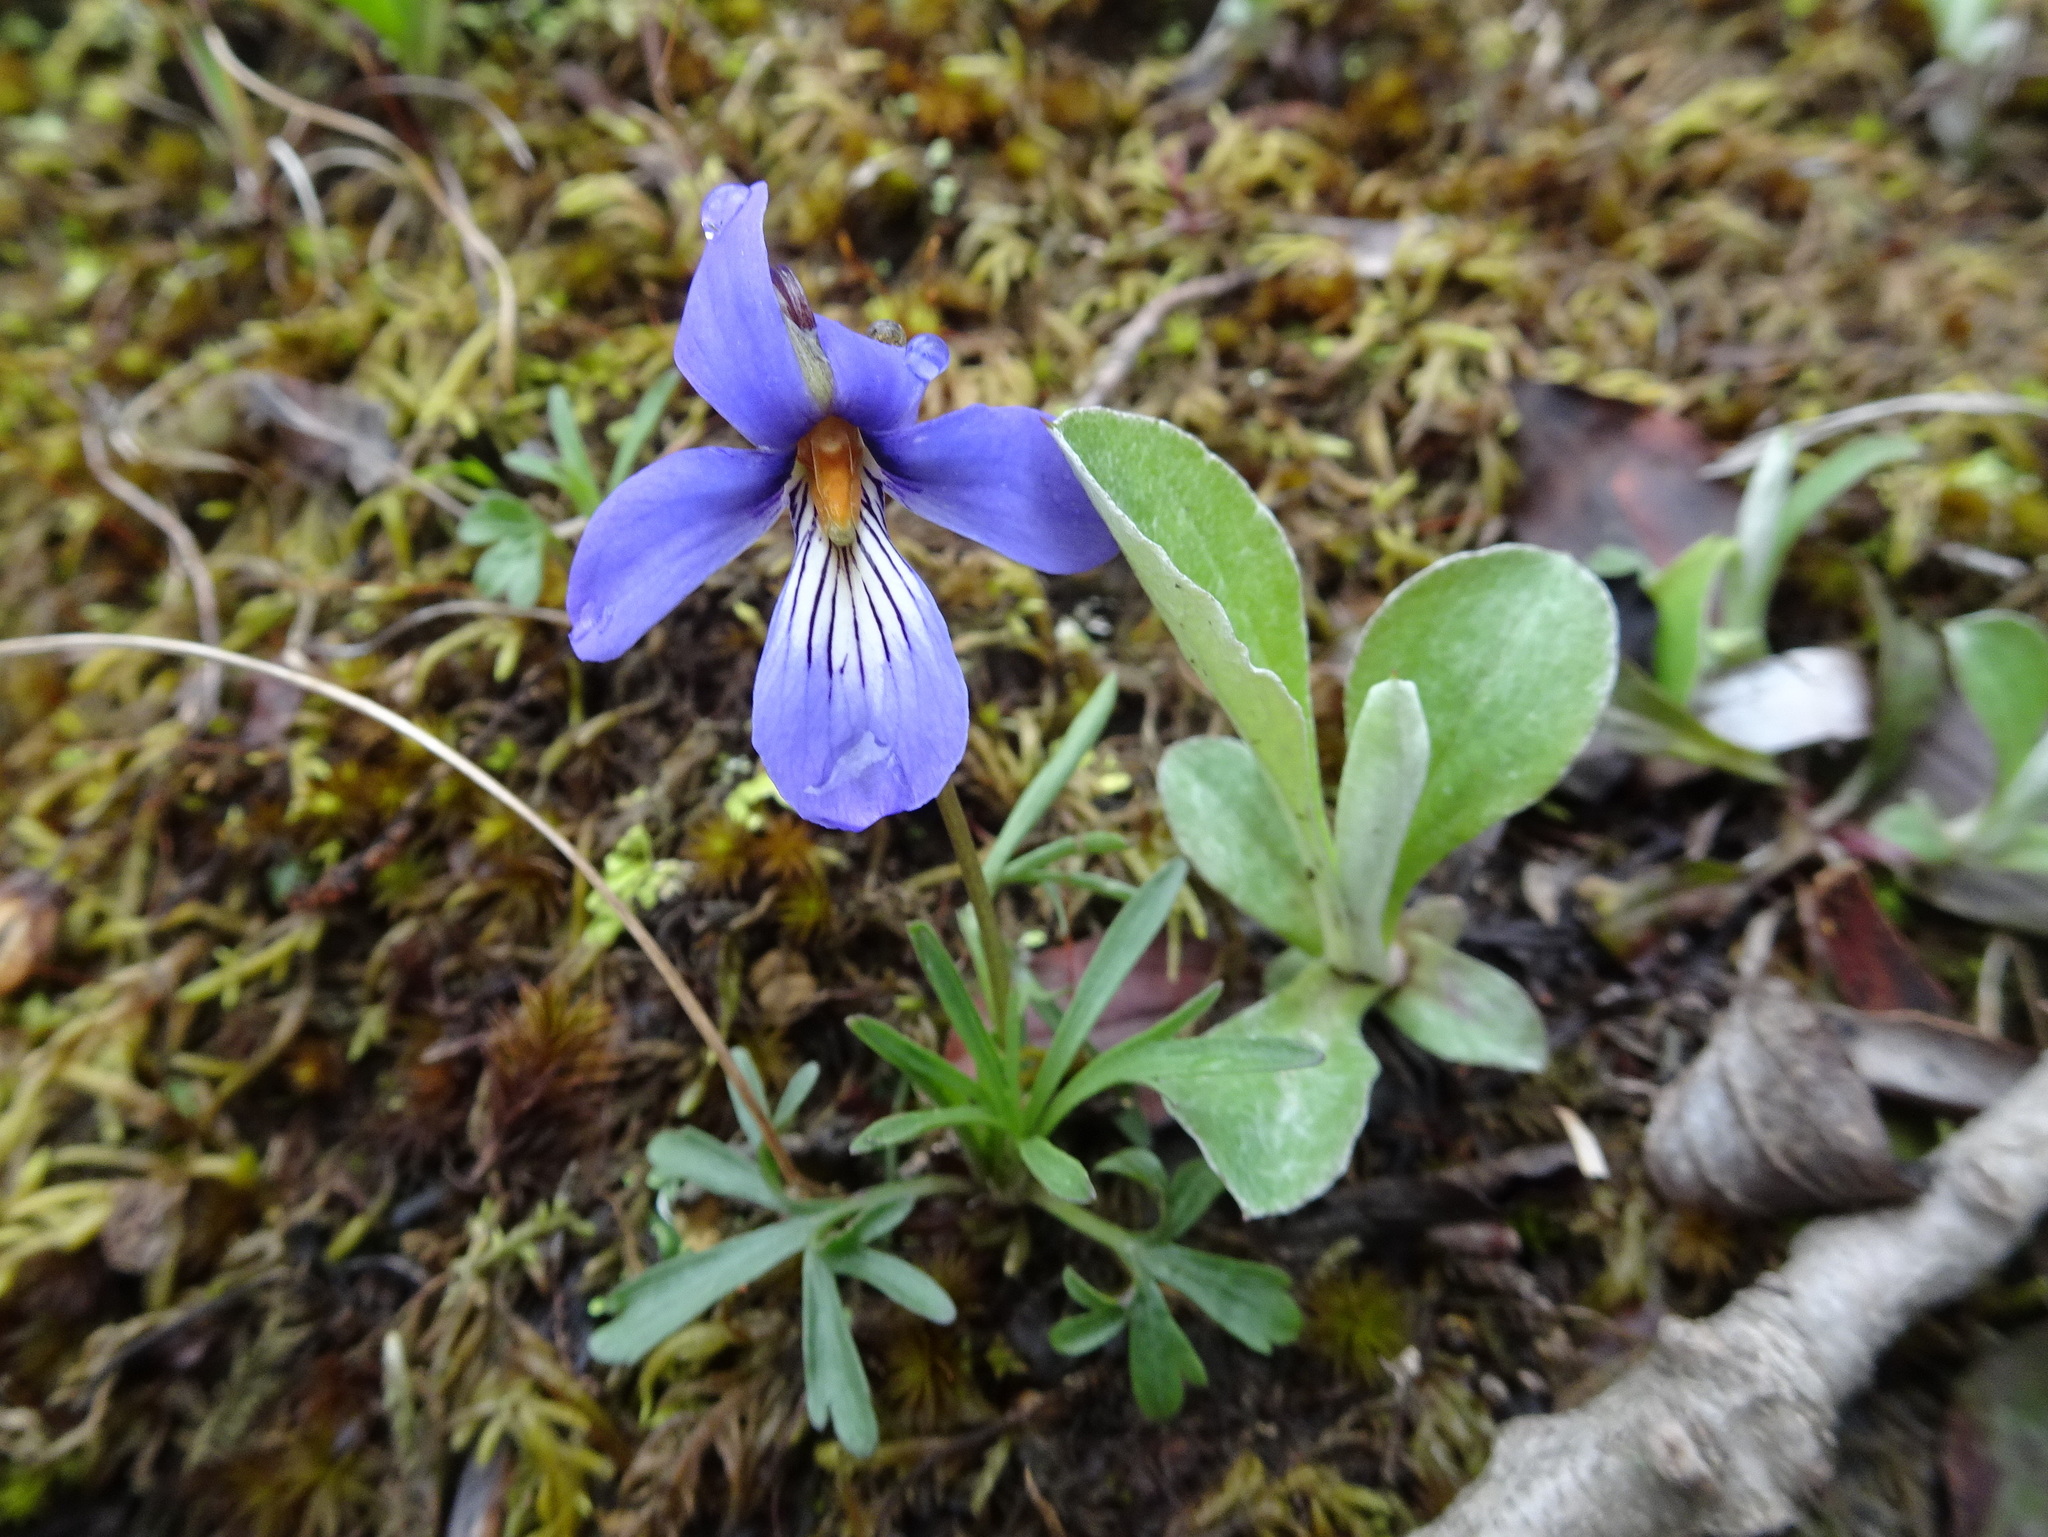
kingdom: Plantae
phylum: Tracheophyta
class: Magnoliopsida
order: Malpighiales
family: Violaceae
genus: Viola
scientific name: Viola pedata
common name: Pansy violet
